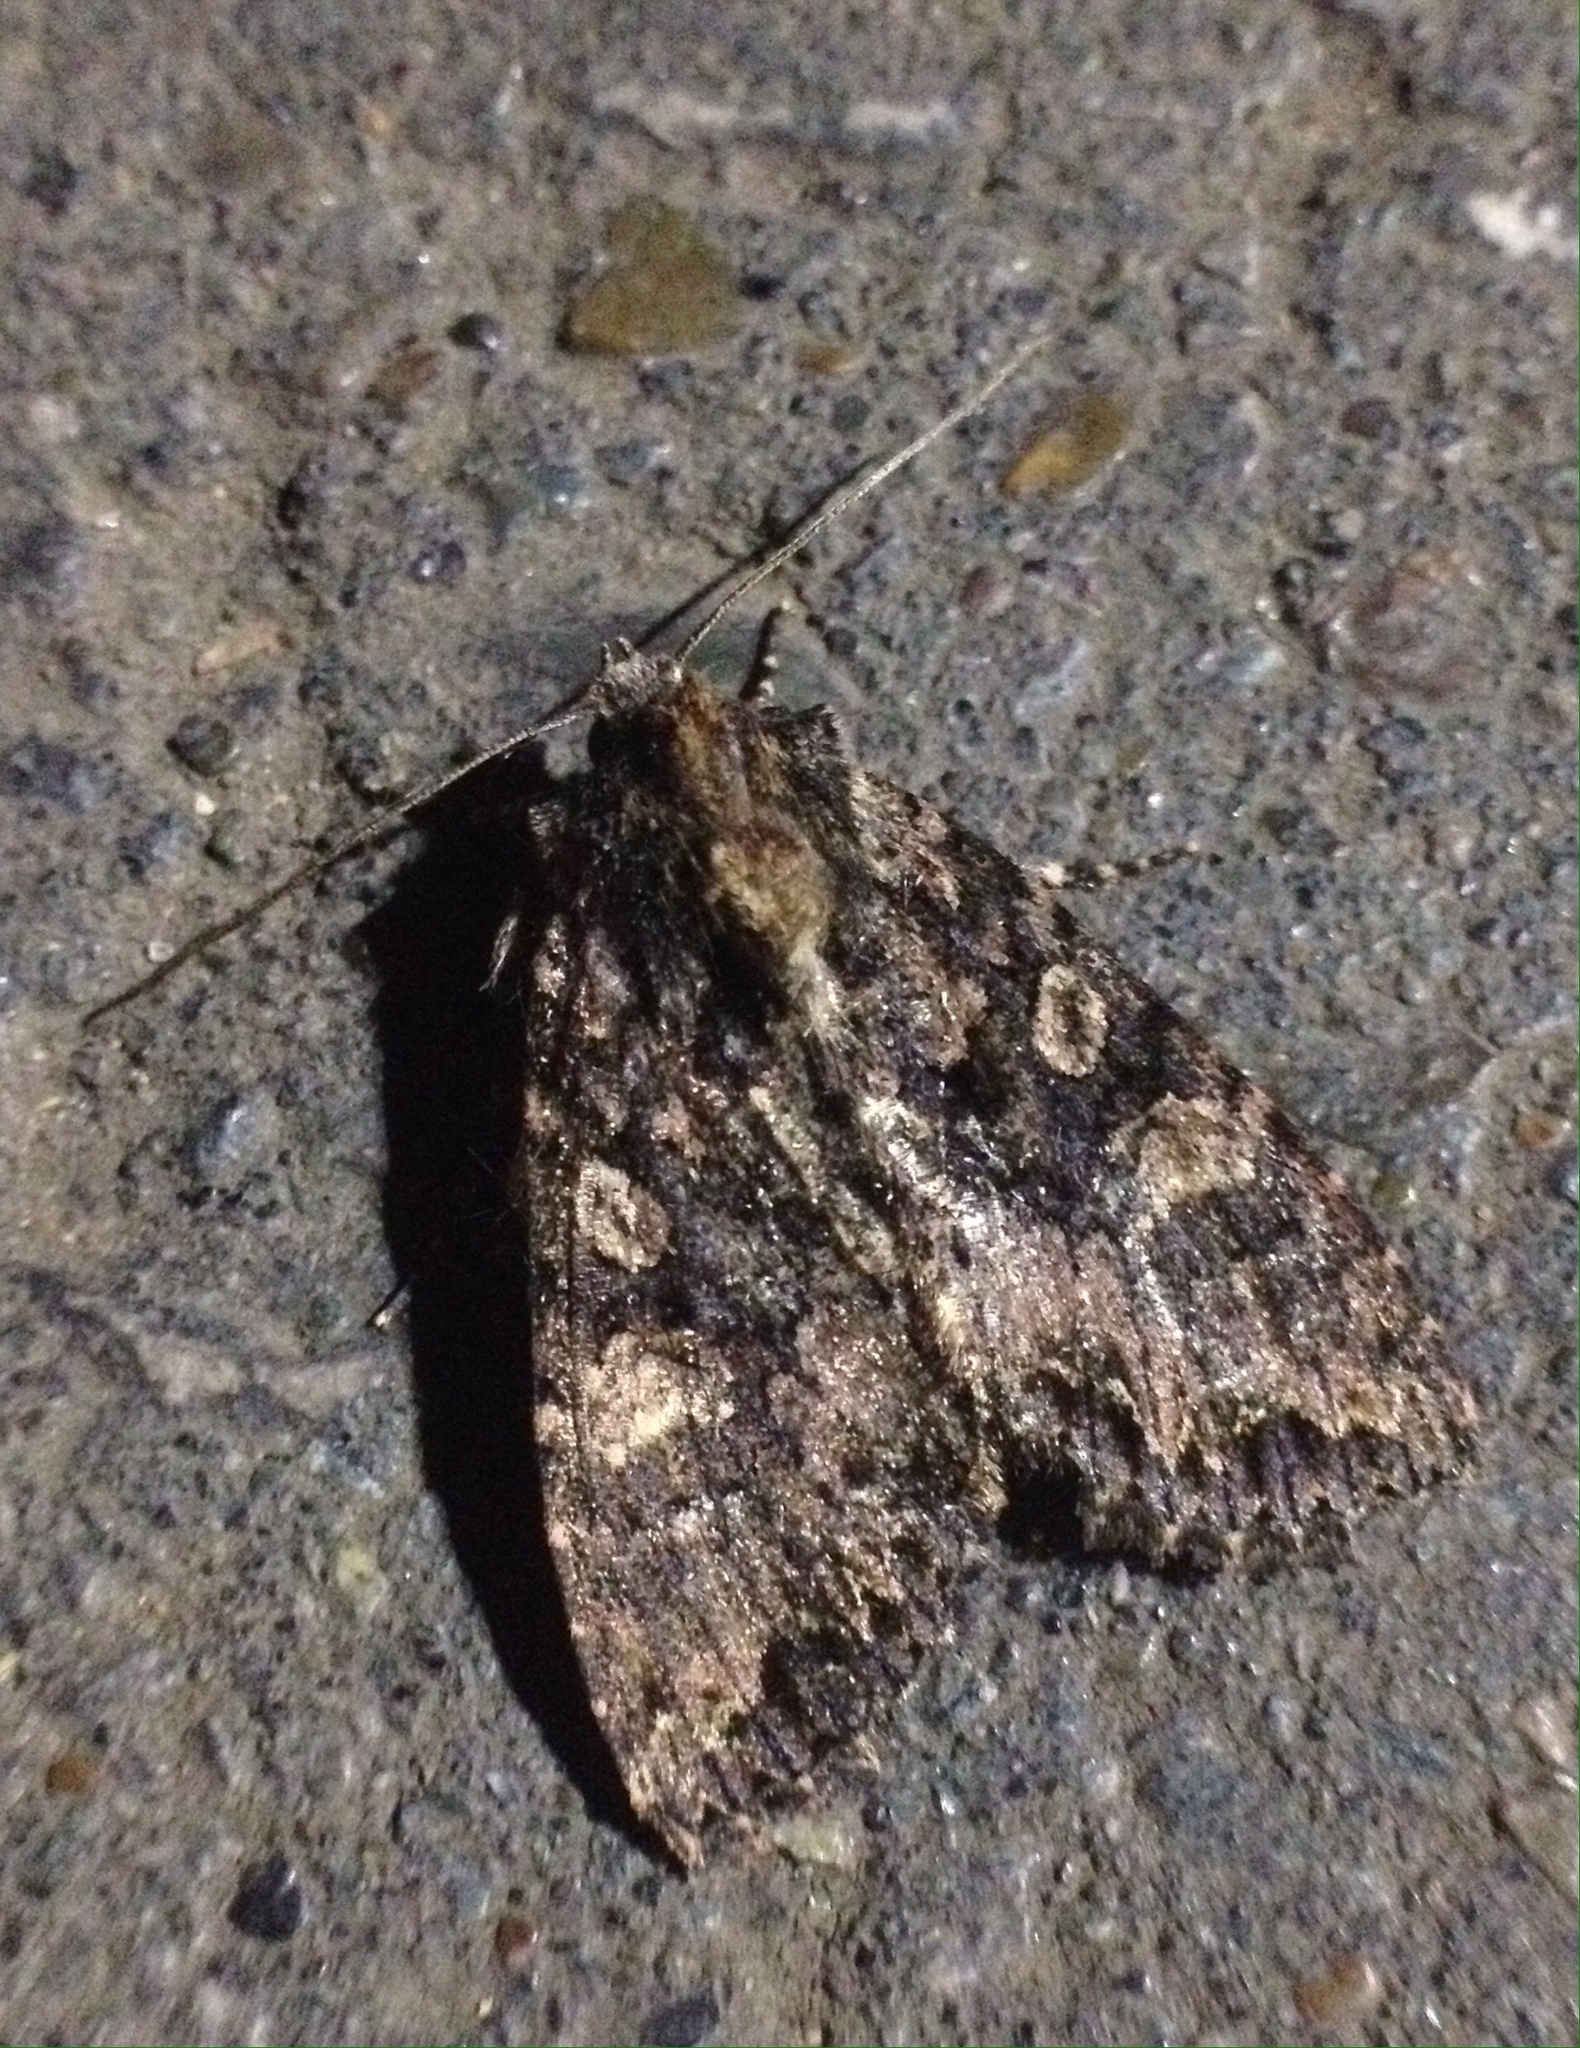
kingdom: Animalia
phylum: Arthropoda
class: Insecta
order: Lepidoptera
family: Noctuidae
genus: Mniotype
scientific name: Mniotype satura
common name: Beautiful arches
